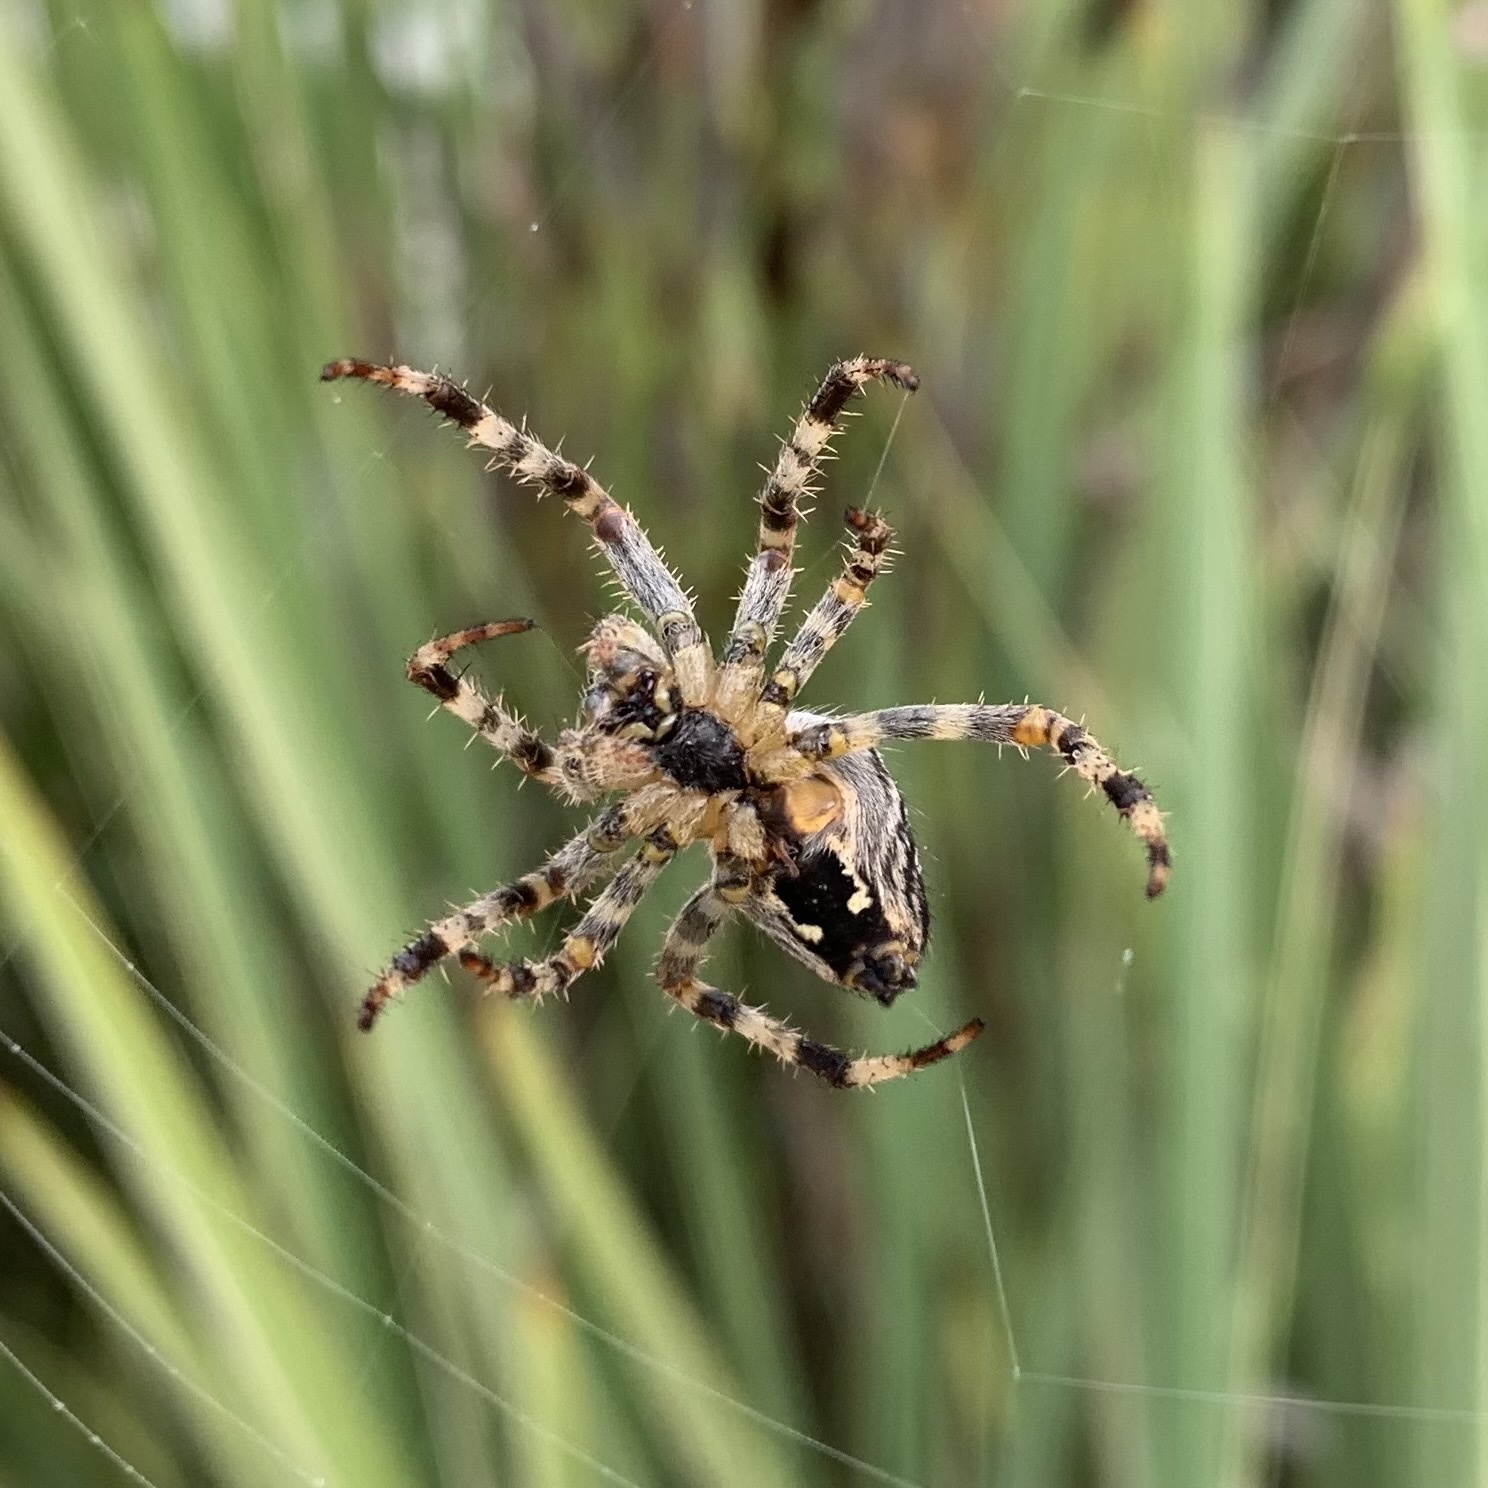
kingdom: Animalia
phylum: Arthropoda
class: Arachnida
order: Araneae
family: Araneidae
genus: Araneus
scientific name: Araneus diadematus
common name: Cross orbweaver
